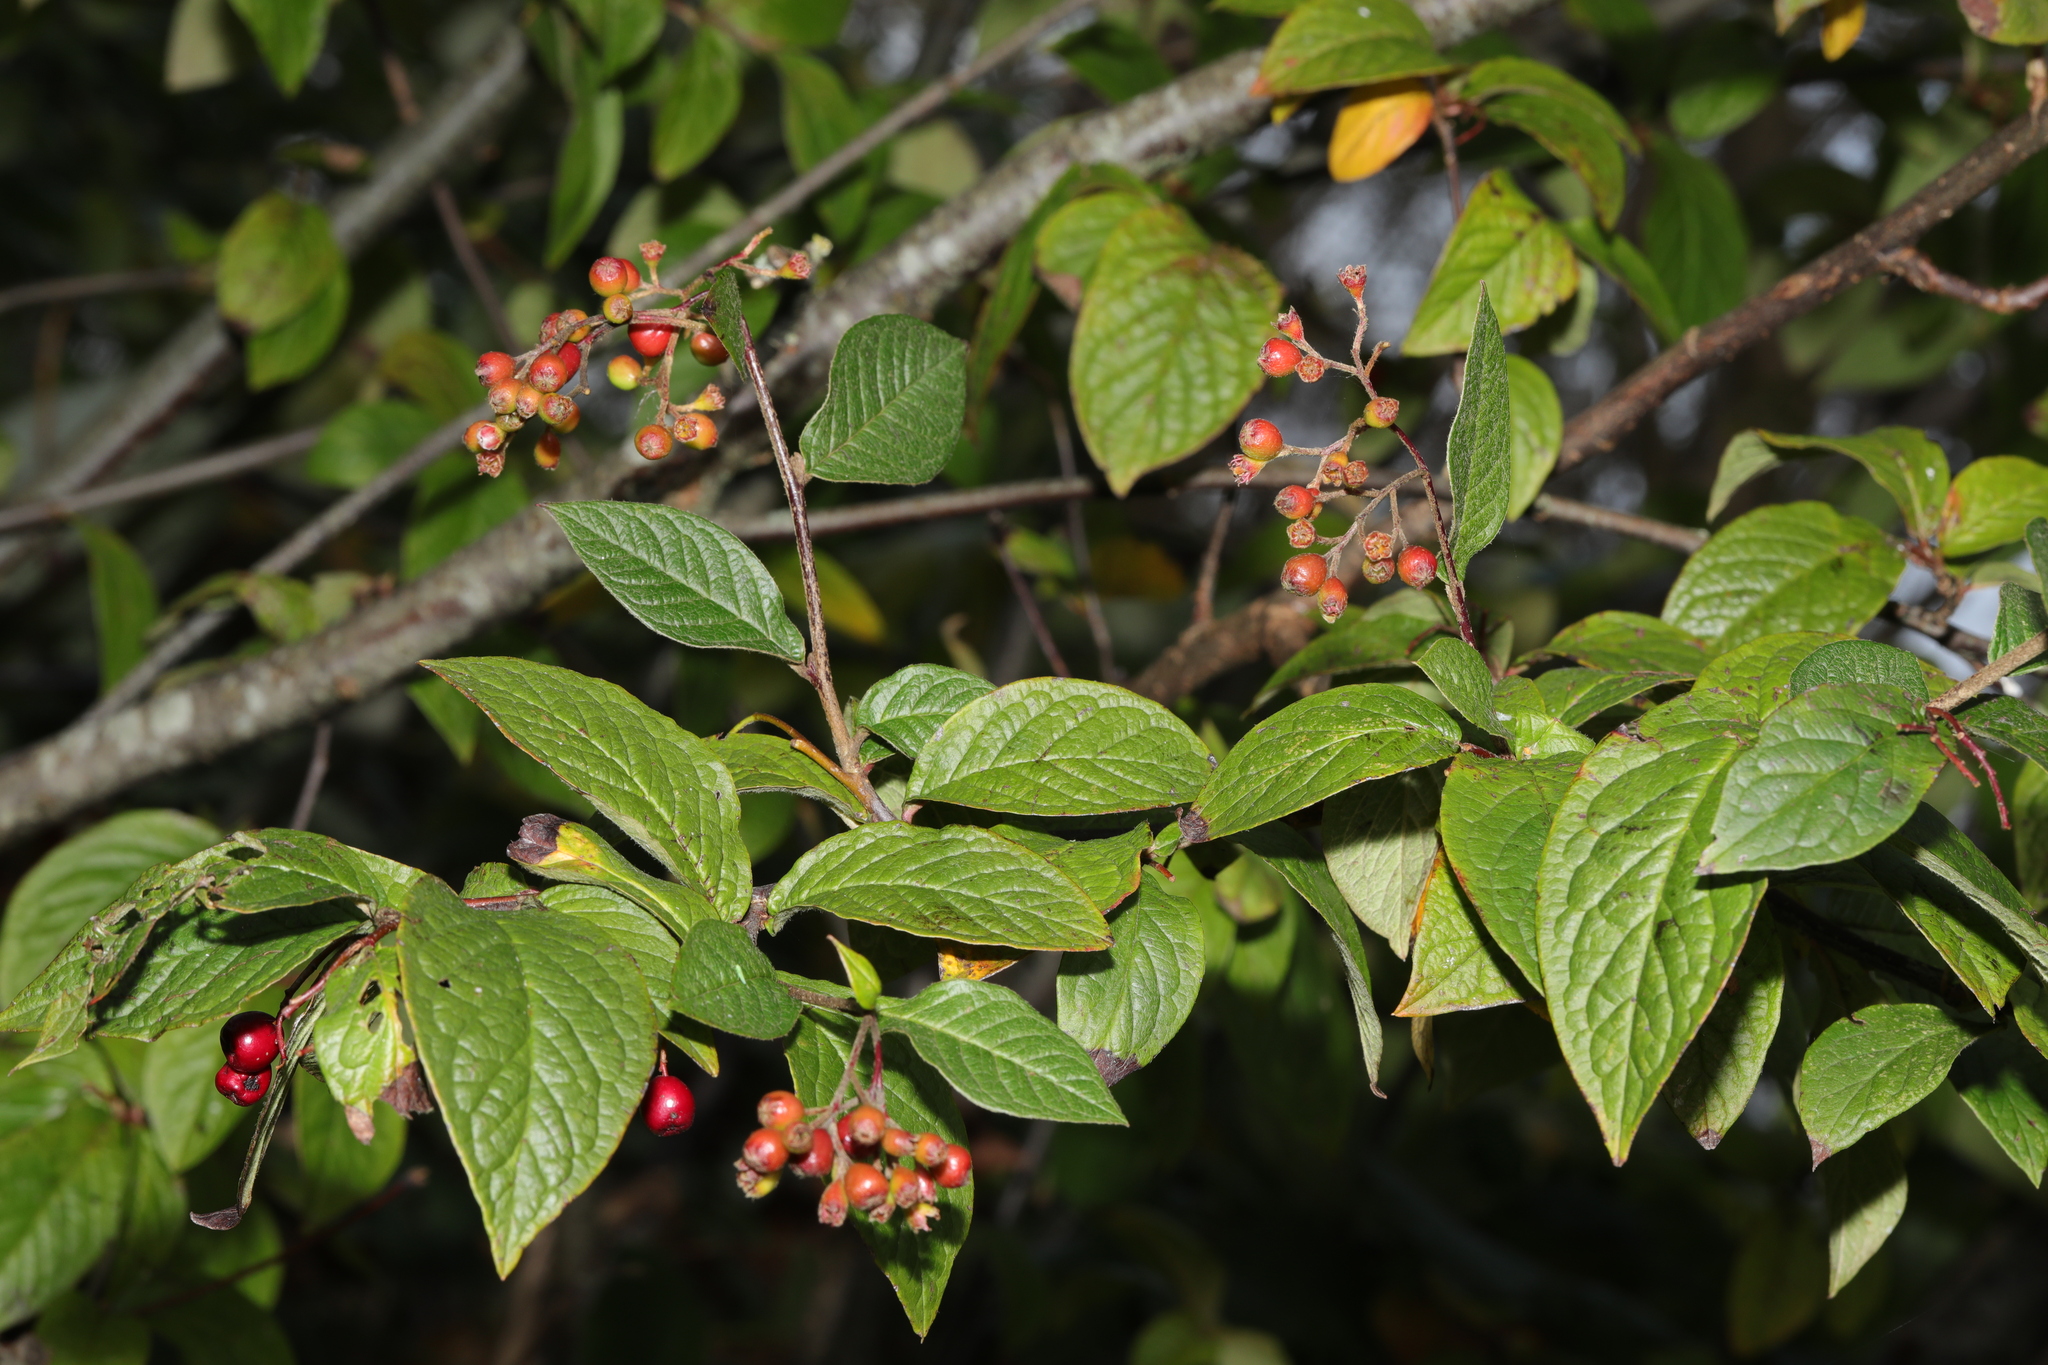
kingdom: Plantae
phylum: Tracheophyta
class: Magnoliopsida
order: Rosales
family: Rosaceae
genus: Cotoneaster
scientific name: Cotoneaster bullatus
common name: Hollyberry cotoneaster
